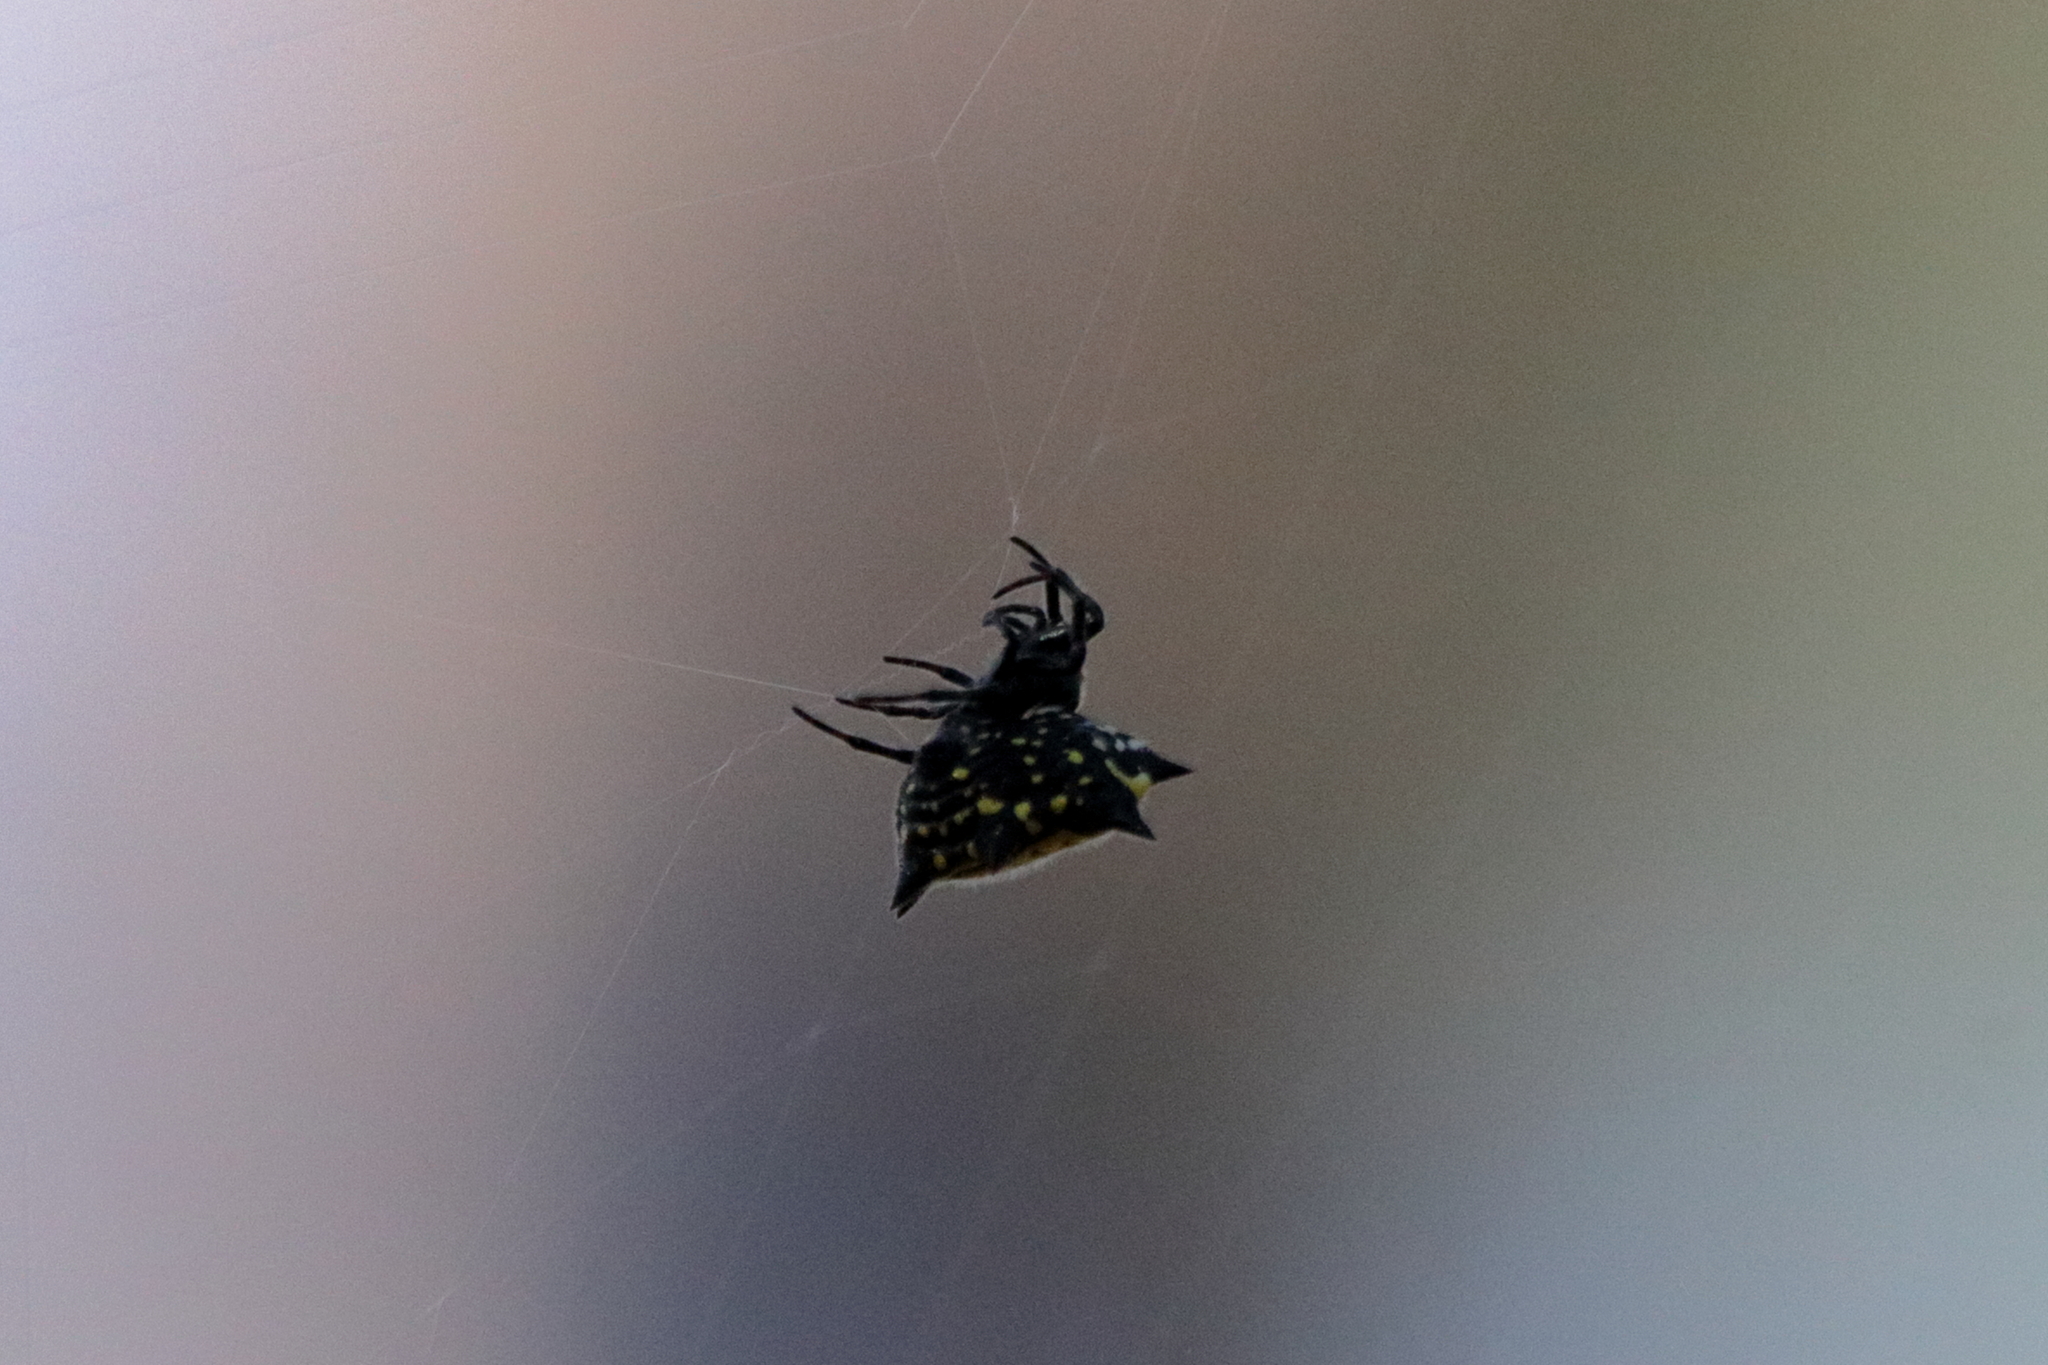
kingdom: Animalia
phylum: Arthropoda
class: Arachnida
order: Araneae
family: Araneidae
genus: Gasteracantha
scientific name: Gasteracantha cancriformis
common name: Orb weavers
